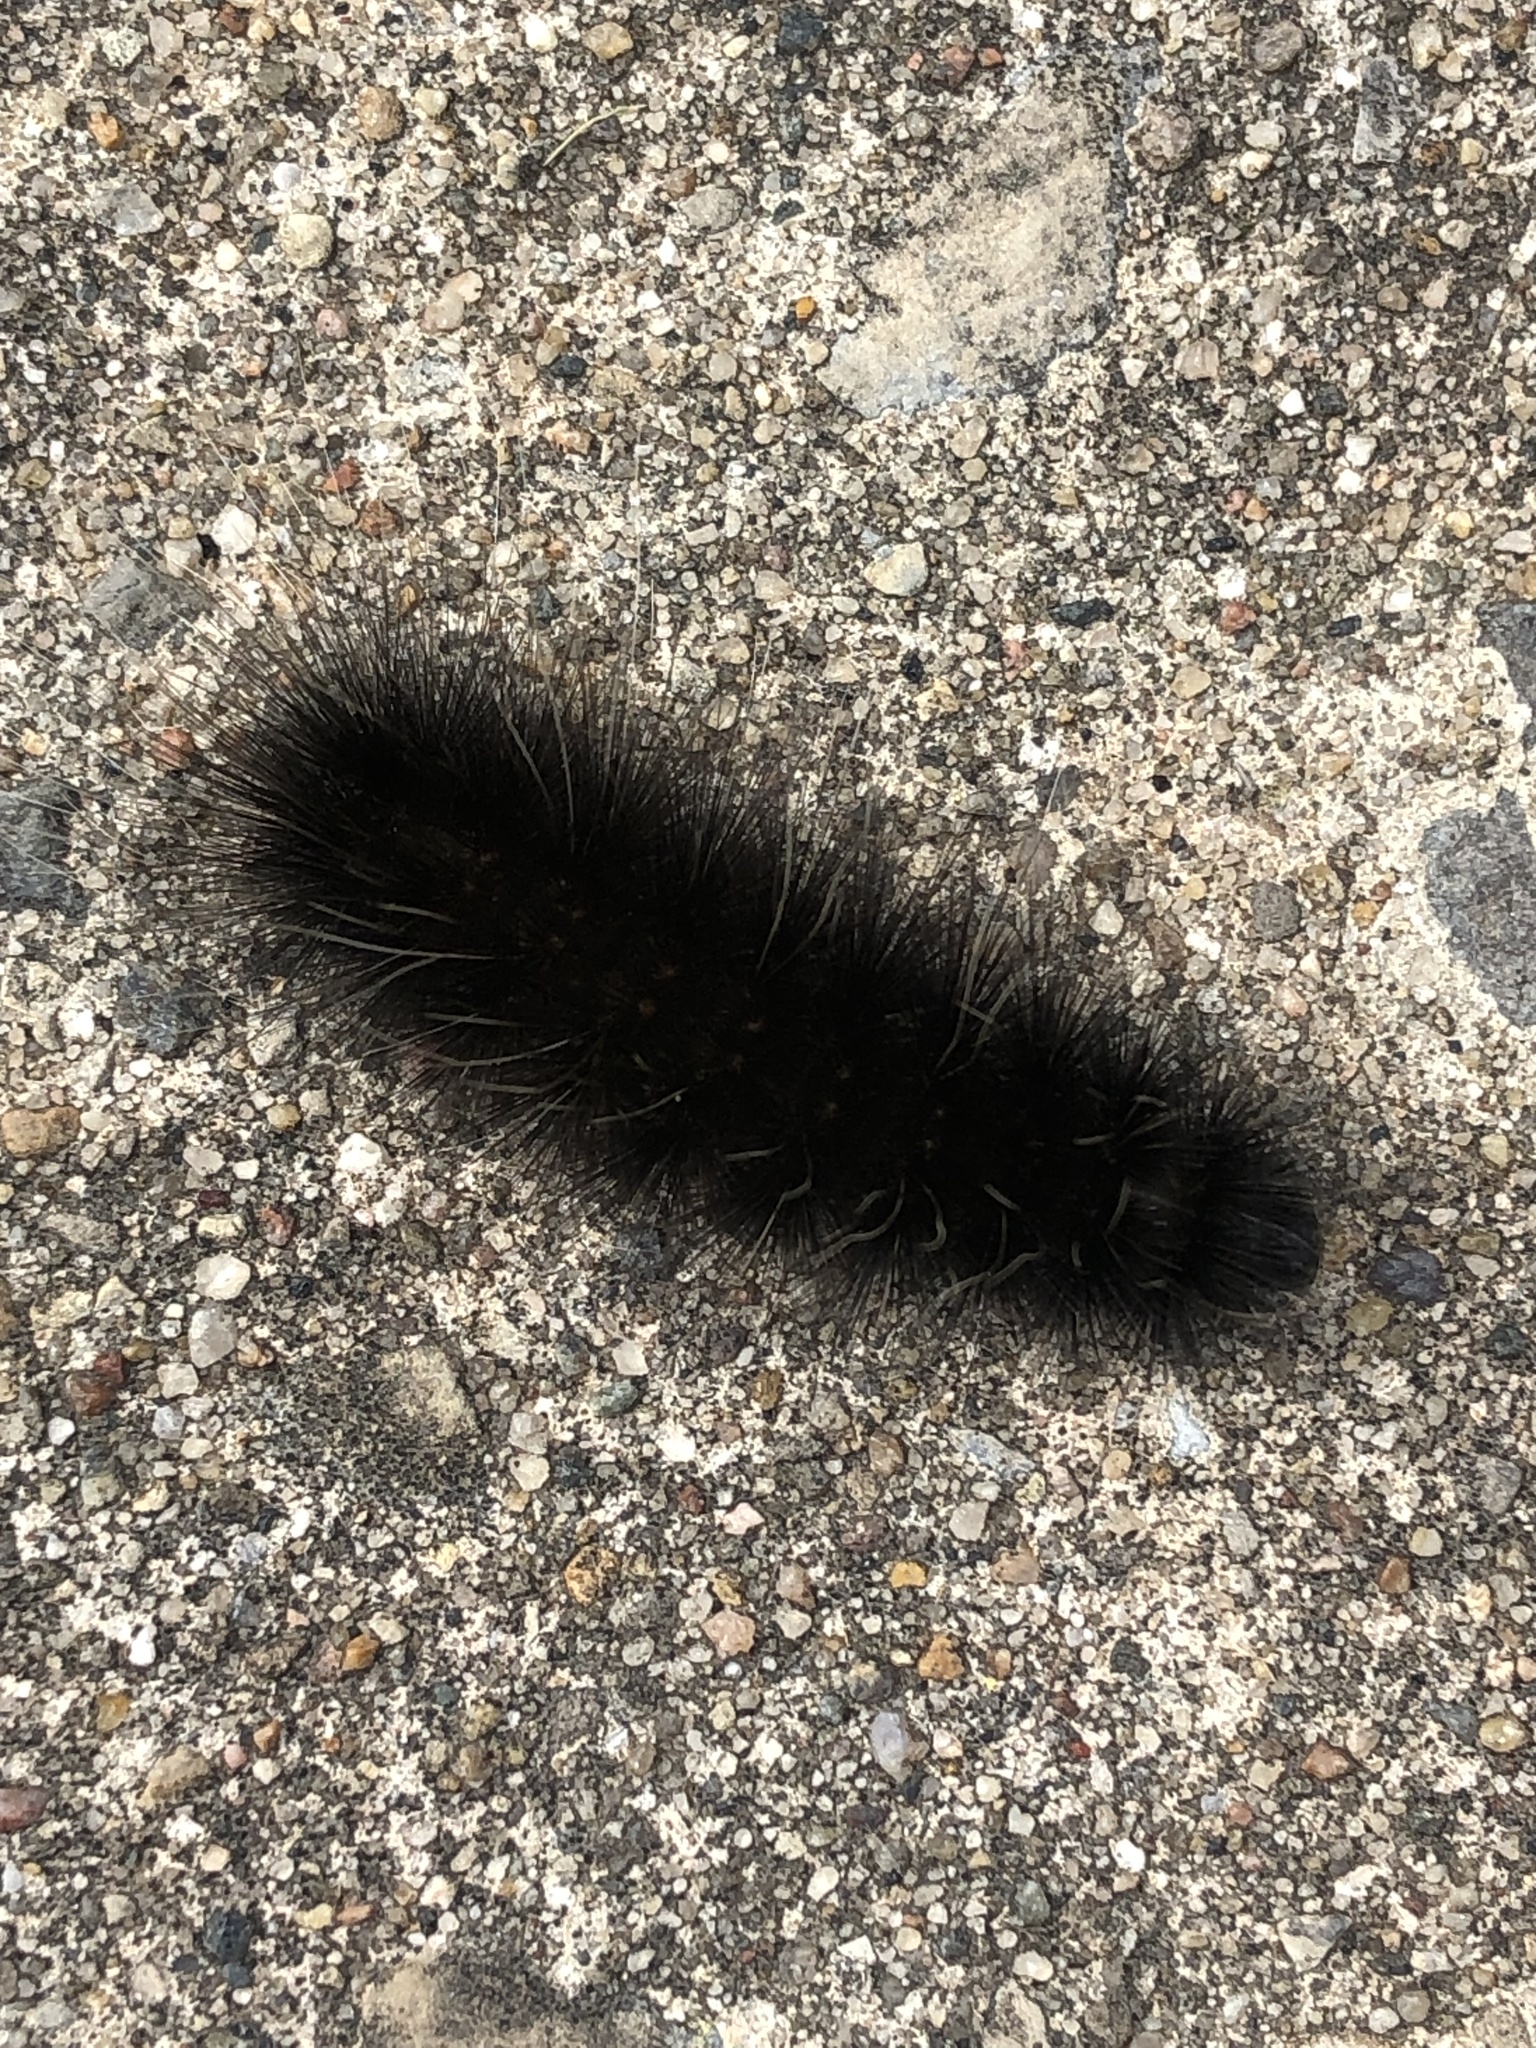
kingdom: Animalia
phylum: Arthropoda
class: Insecta
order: Lepidoptera
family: Erebidae
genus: Spilosoma
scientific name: Spilosoma virginica
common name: Virginia tiger moth
